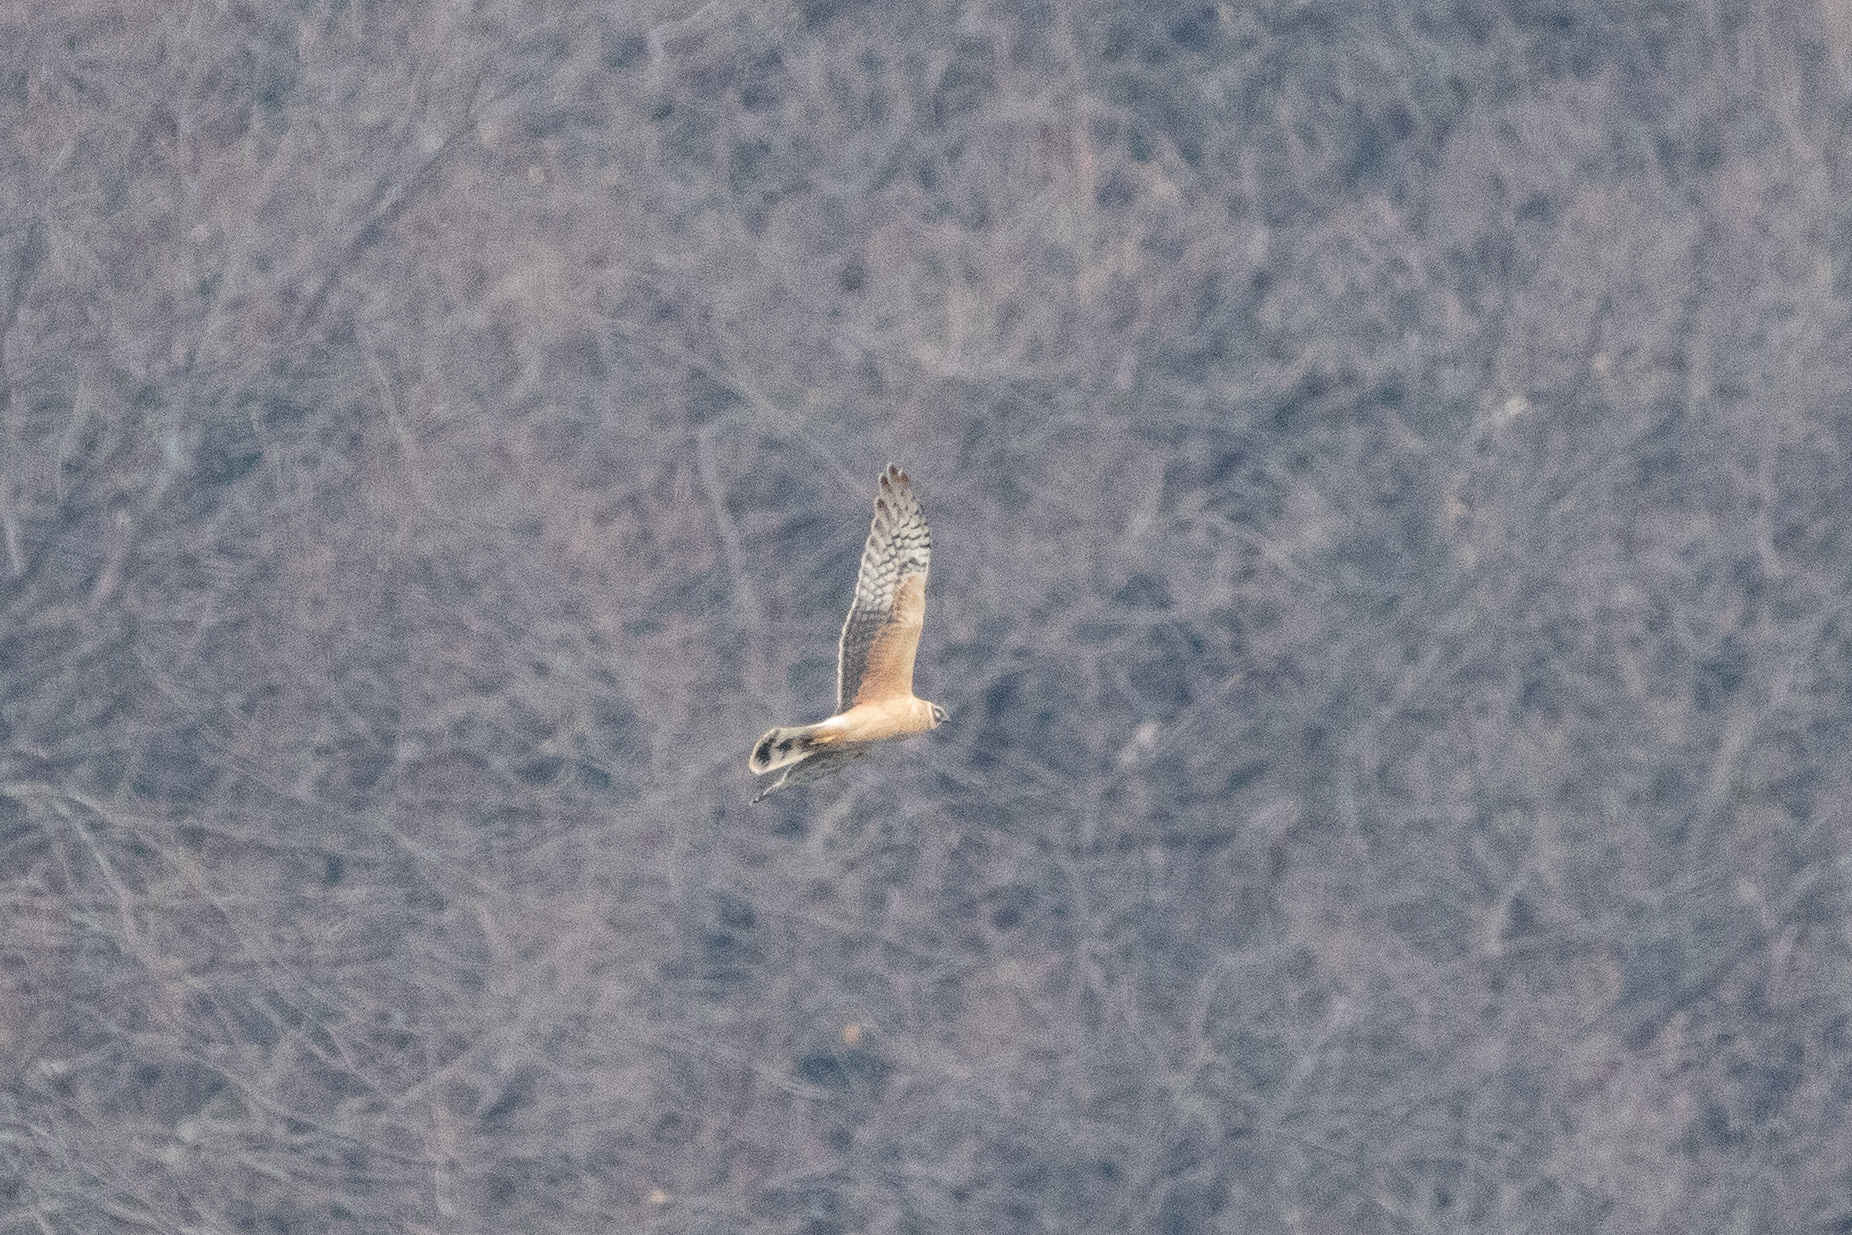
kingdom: Animalia
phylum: Chordata
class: Aves
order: Accipitriformes
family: Accipitridae
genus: Circus
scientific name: Circus macrourus
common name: Pallid harrier
